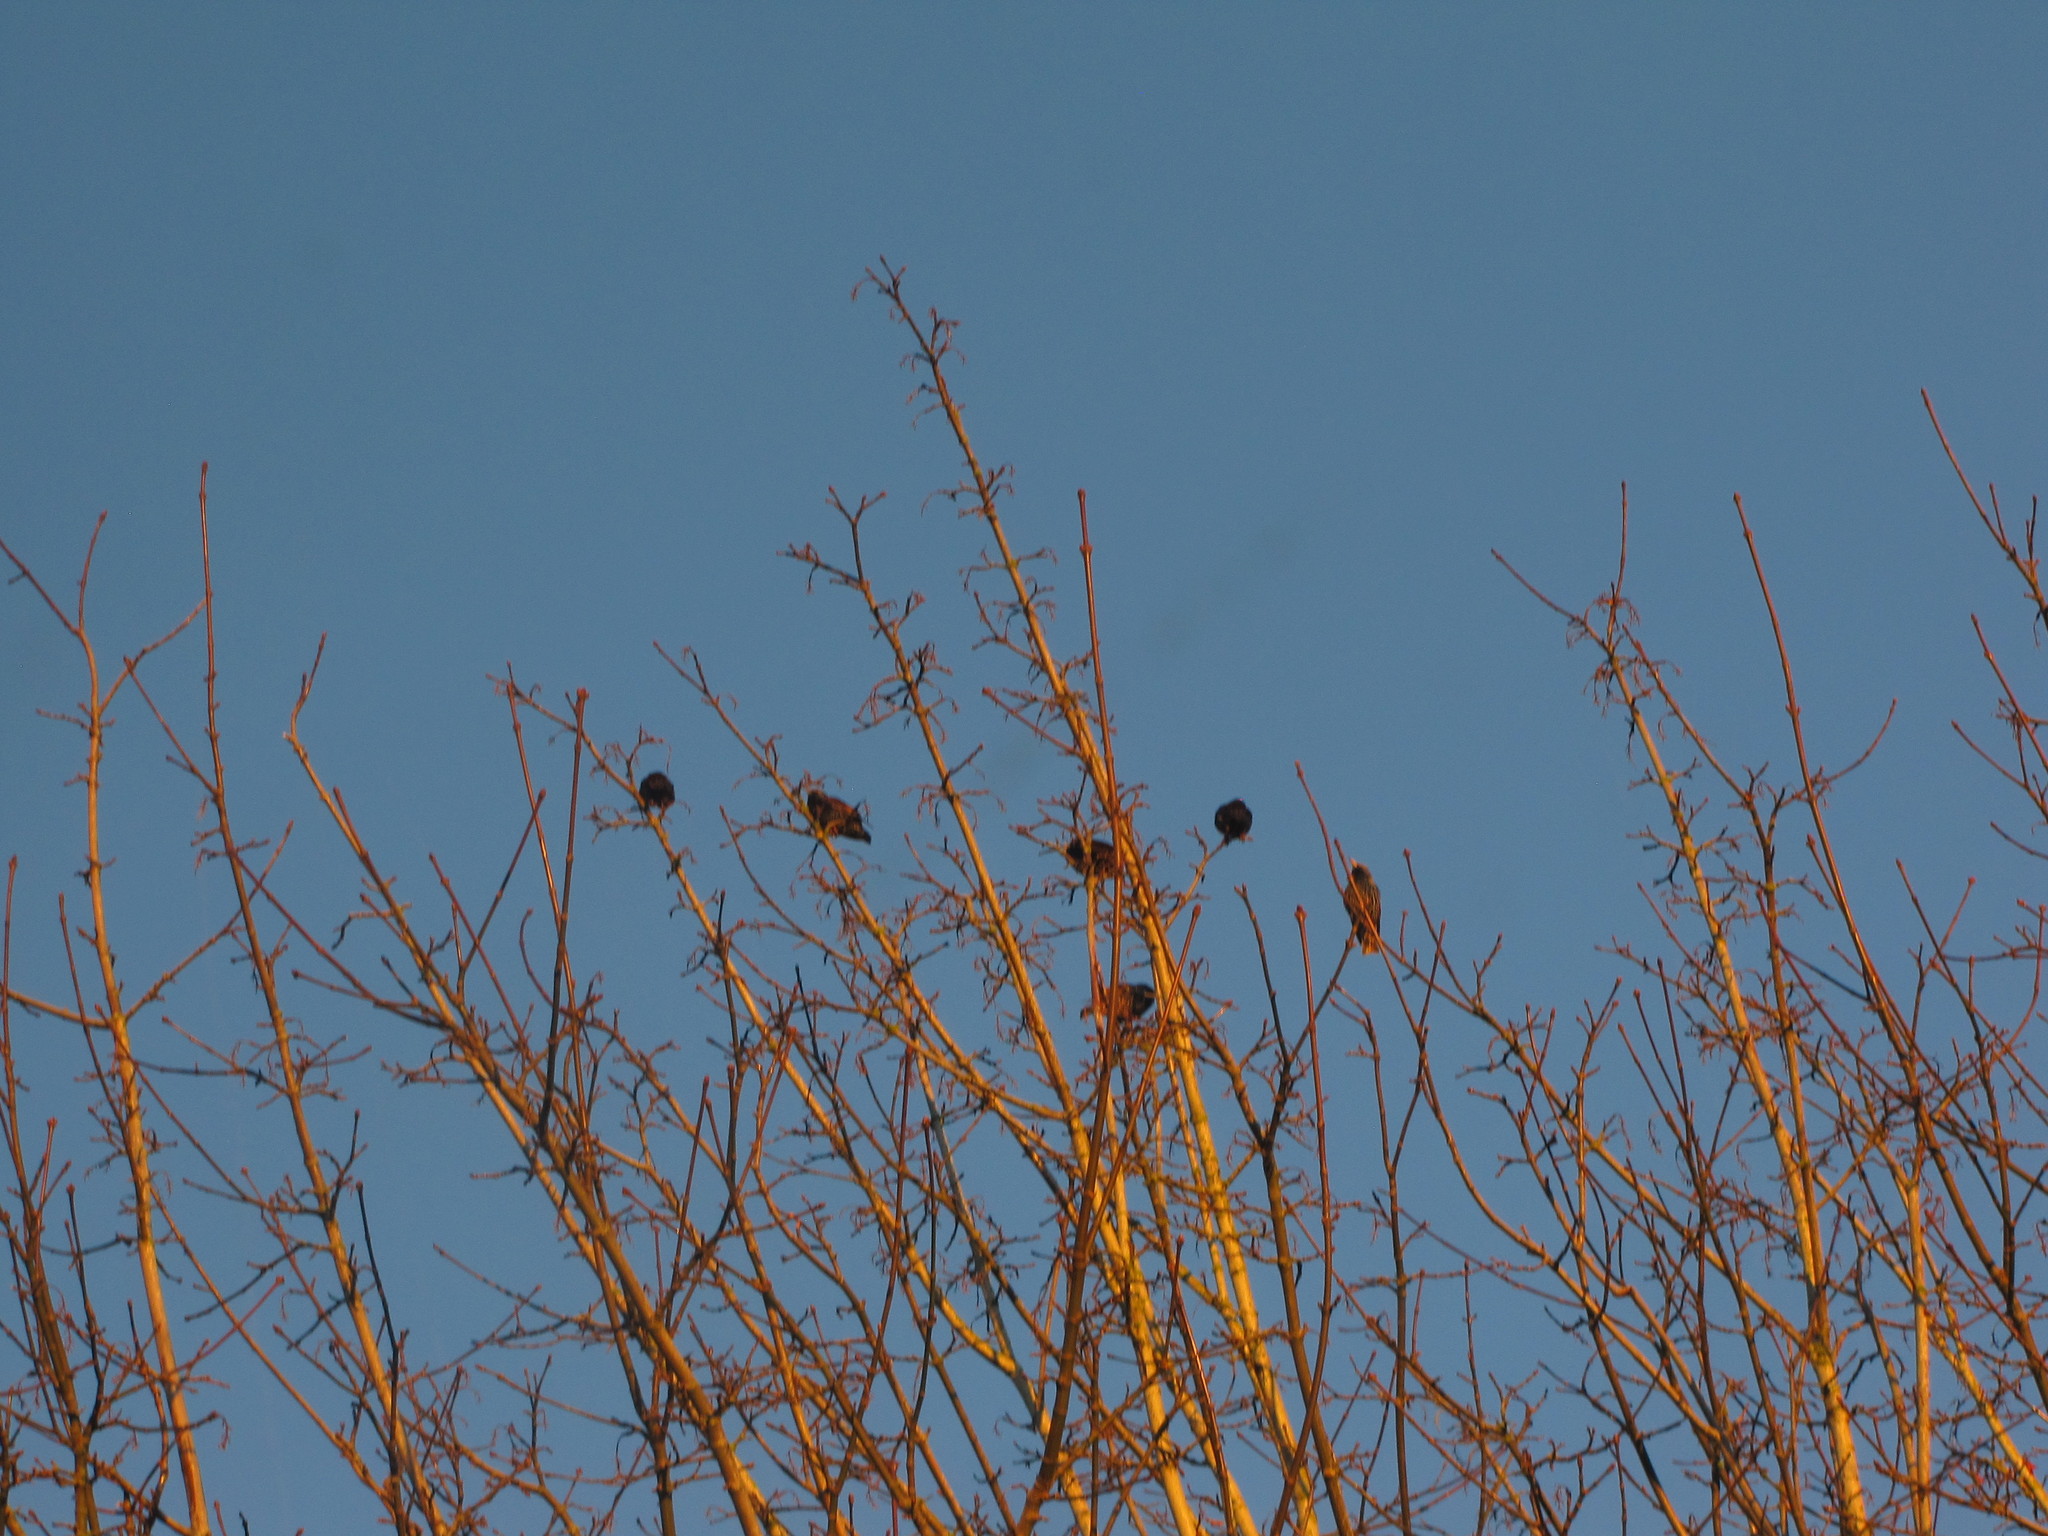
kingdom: Animalia
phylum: Chordata
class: Aves
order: Passeriformes
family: Sturnidae
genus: Sturnus
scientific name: Sturnus vulgaris
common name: Common starling
